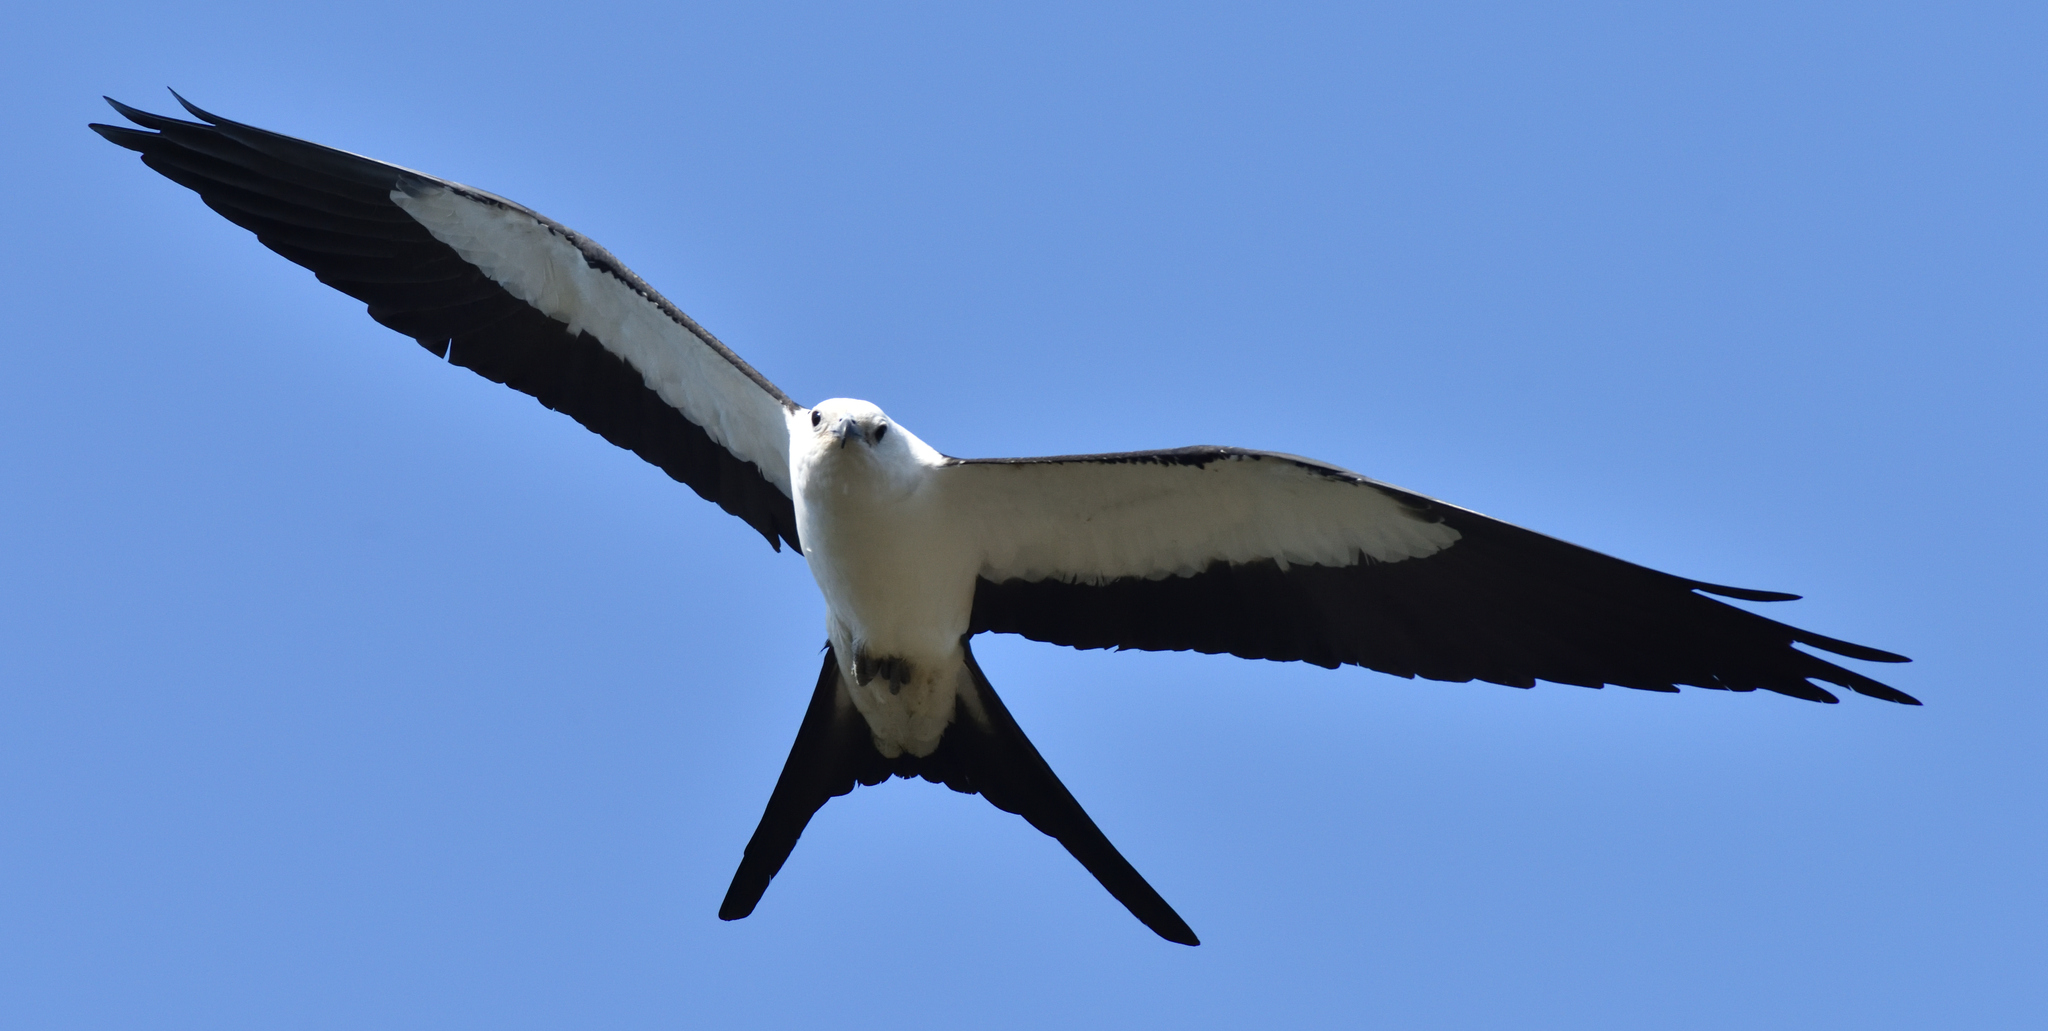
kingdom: Animalia
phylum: Chordata
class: Aves
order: Accipitriformes
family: Accipitridae
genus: Elanoides
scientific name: Elanoides forficatus
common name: Swallow-tailed kite
